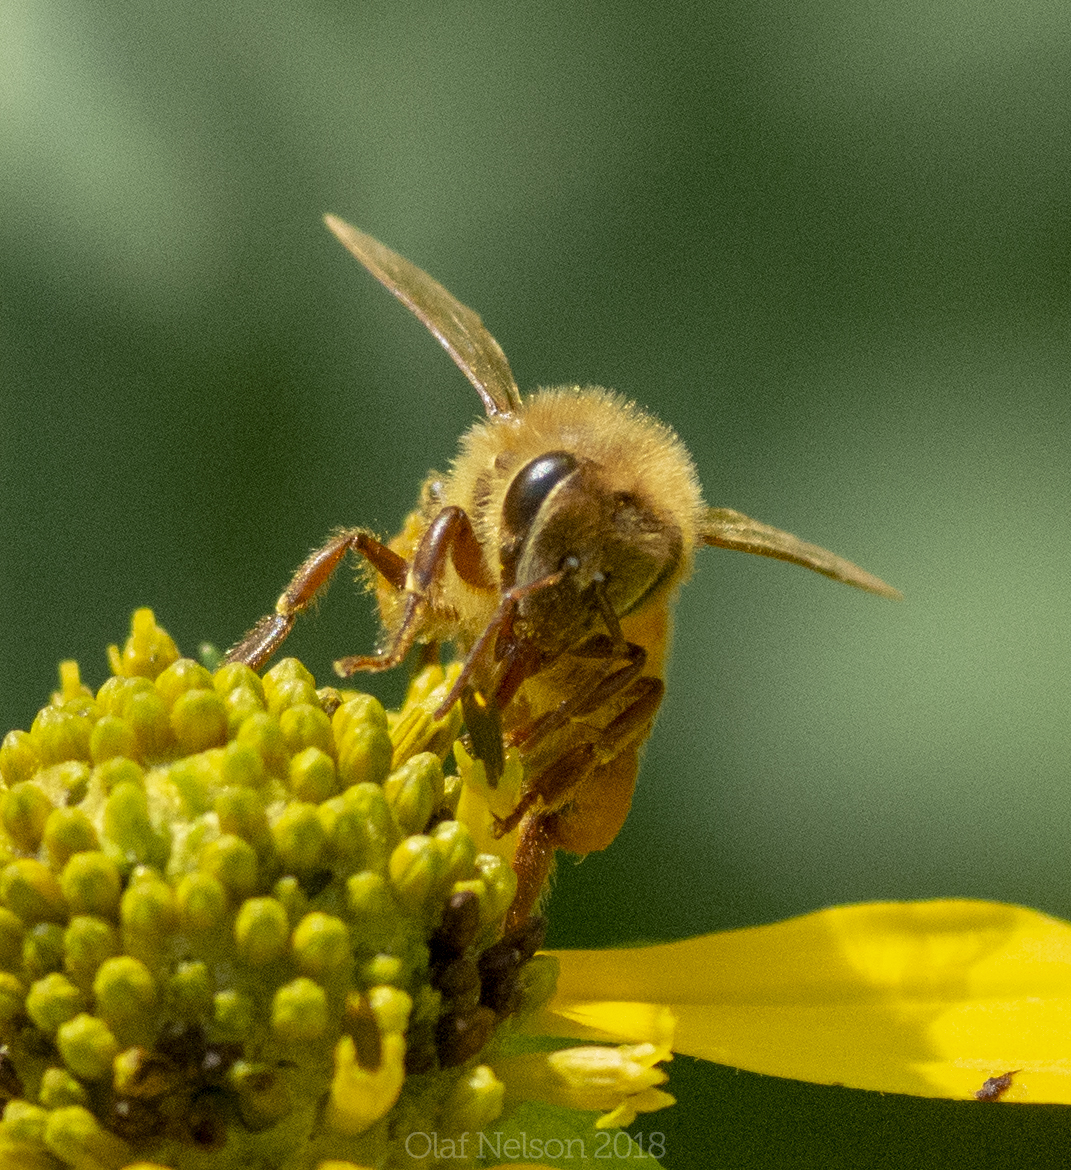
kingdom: Animalia
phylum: Arthropoda
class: Insecta
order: Hymenoptera
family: Apidae
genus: Apis
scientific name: Apis mellifera
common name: Honey bee
